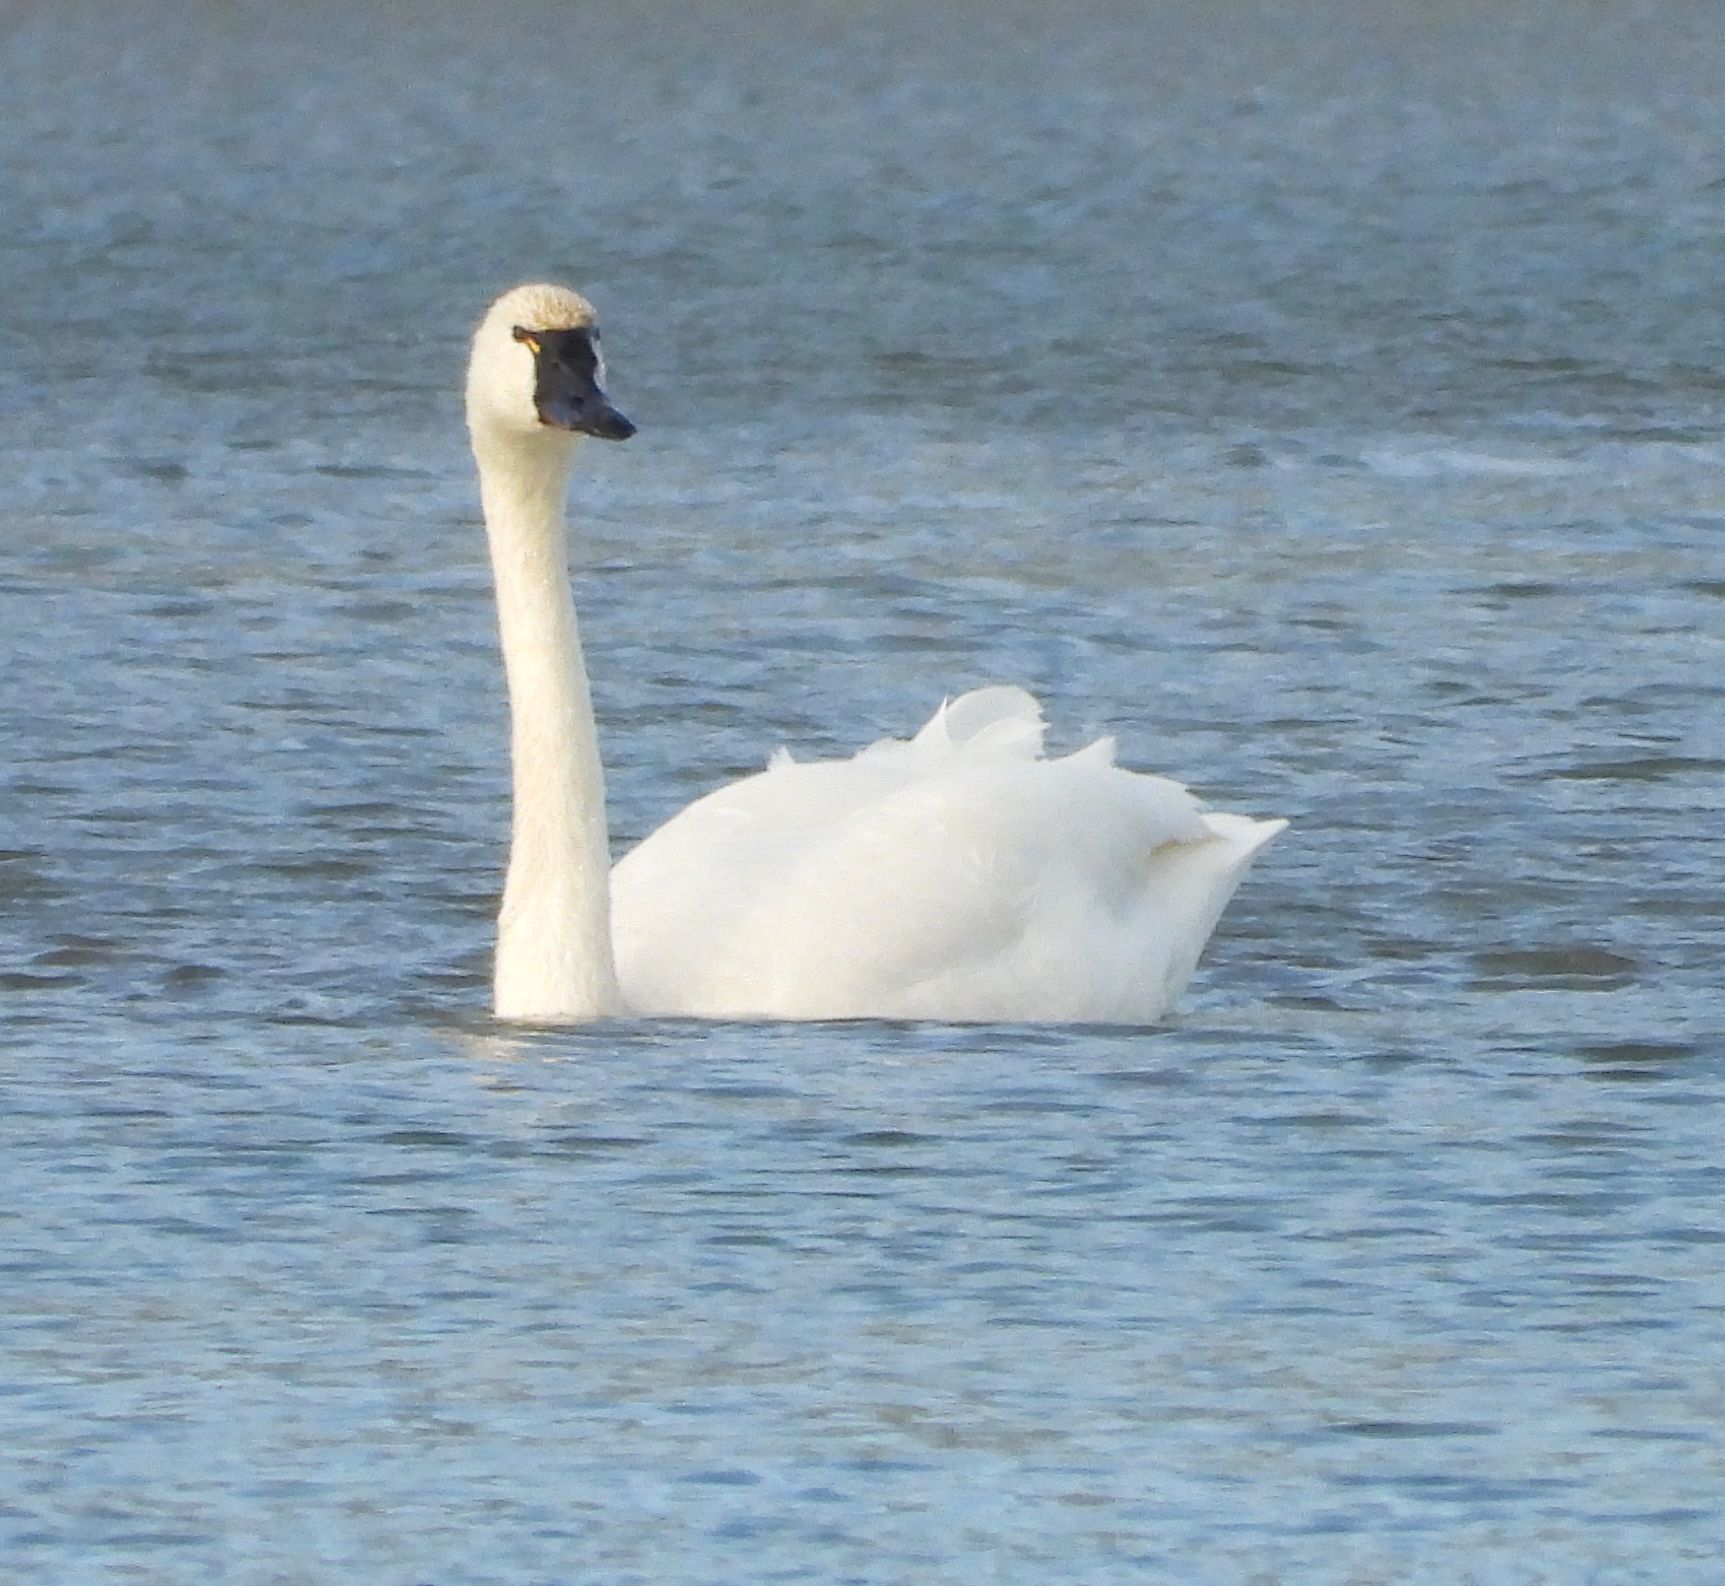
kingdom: Animalia
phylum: Chordata
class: Aves
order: Anseriformes
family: Anatidae
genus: Cygnus
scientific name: Cygnus columbianus
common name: Tundra swan
